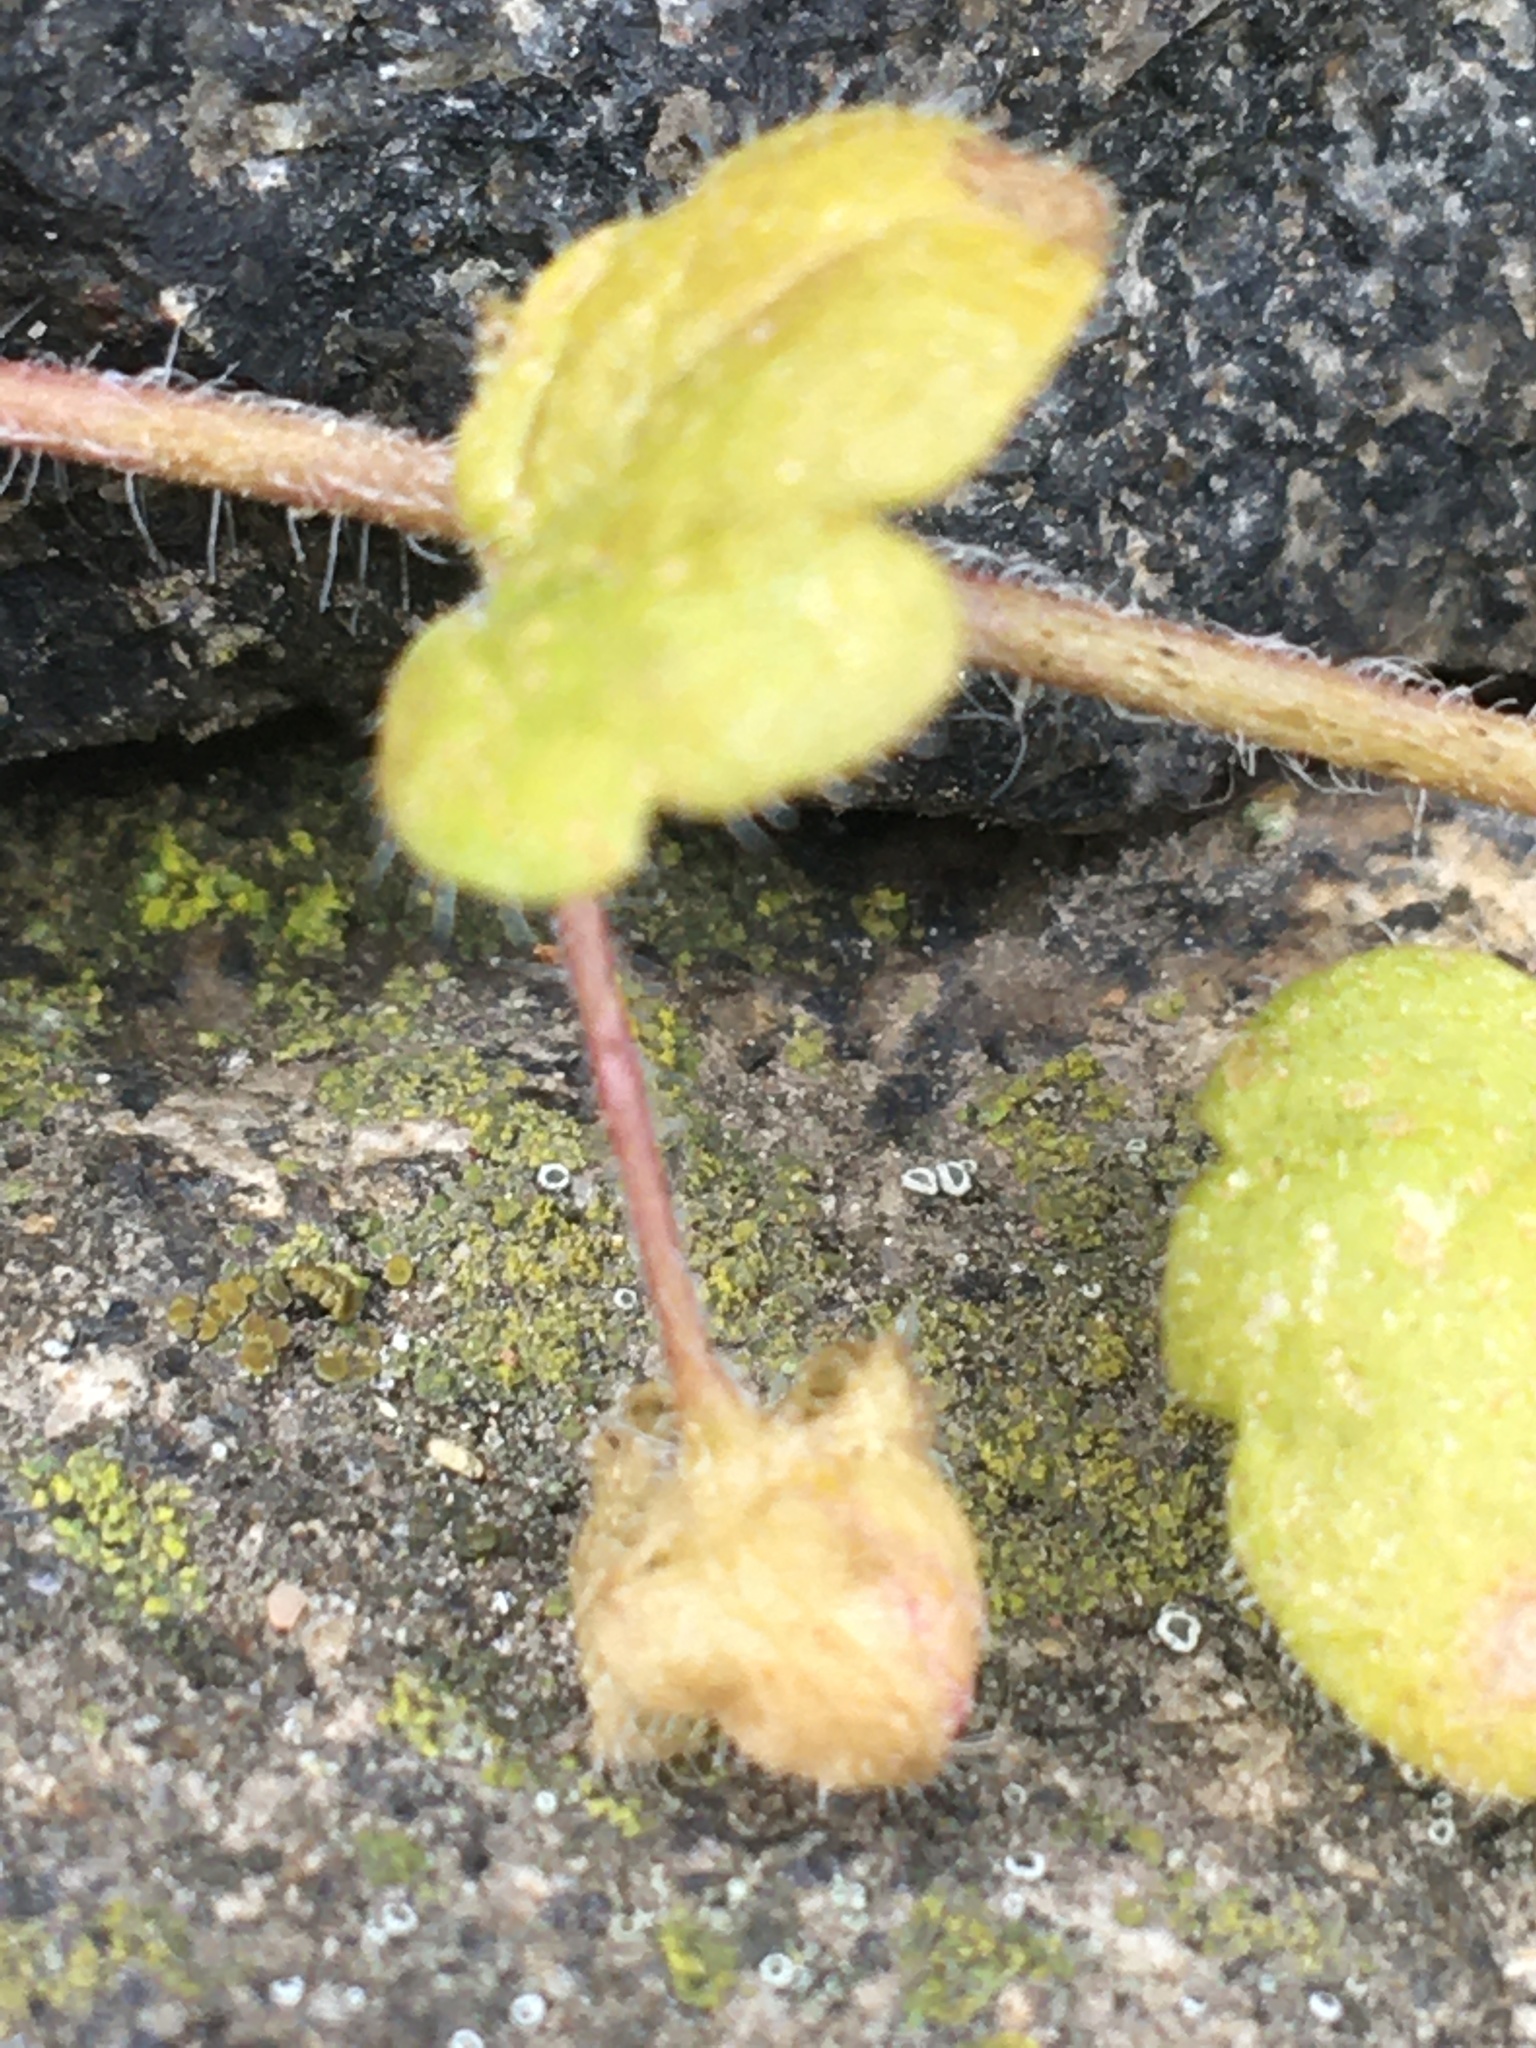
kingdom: Plantae
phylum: Tracheophyta
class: Magnoliopsida
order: Lamiales
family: Plantaginaceae
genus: Veronica
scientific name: Veronica sublobata
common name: False ivy-leaved speedwell
